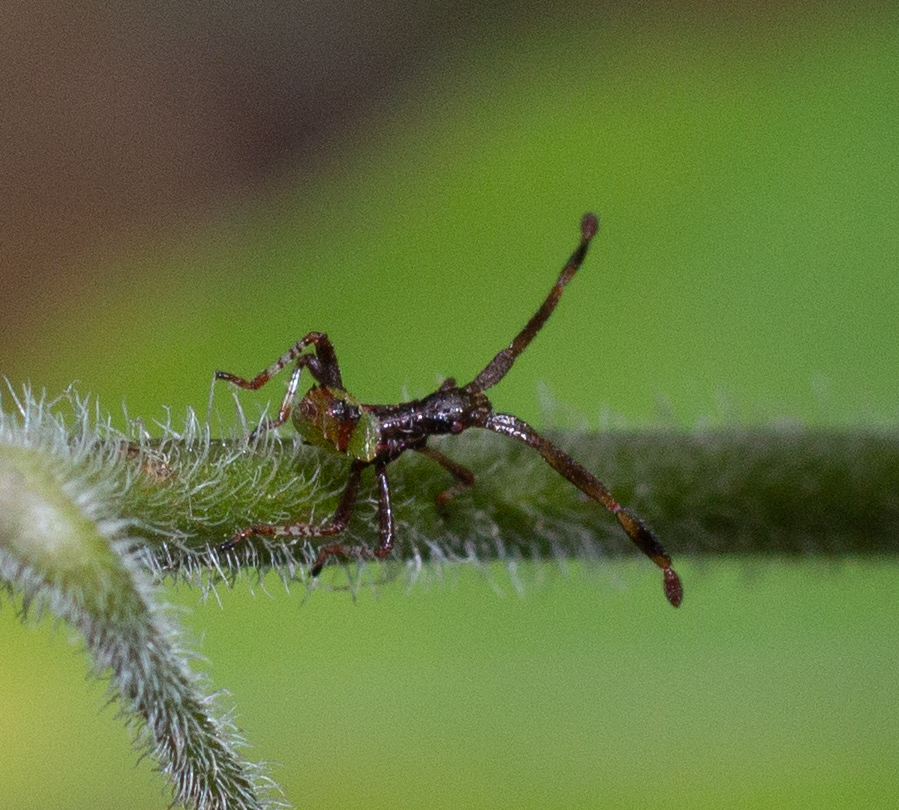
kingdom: Animalia
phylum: Arthropoda
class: Insecta
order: Hemiptera
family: Coreidae
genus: Gonocerus
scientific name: Gonocerus acuteangulatus
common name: Box bug
